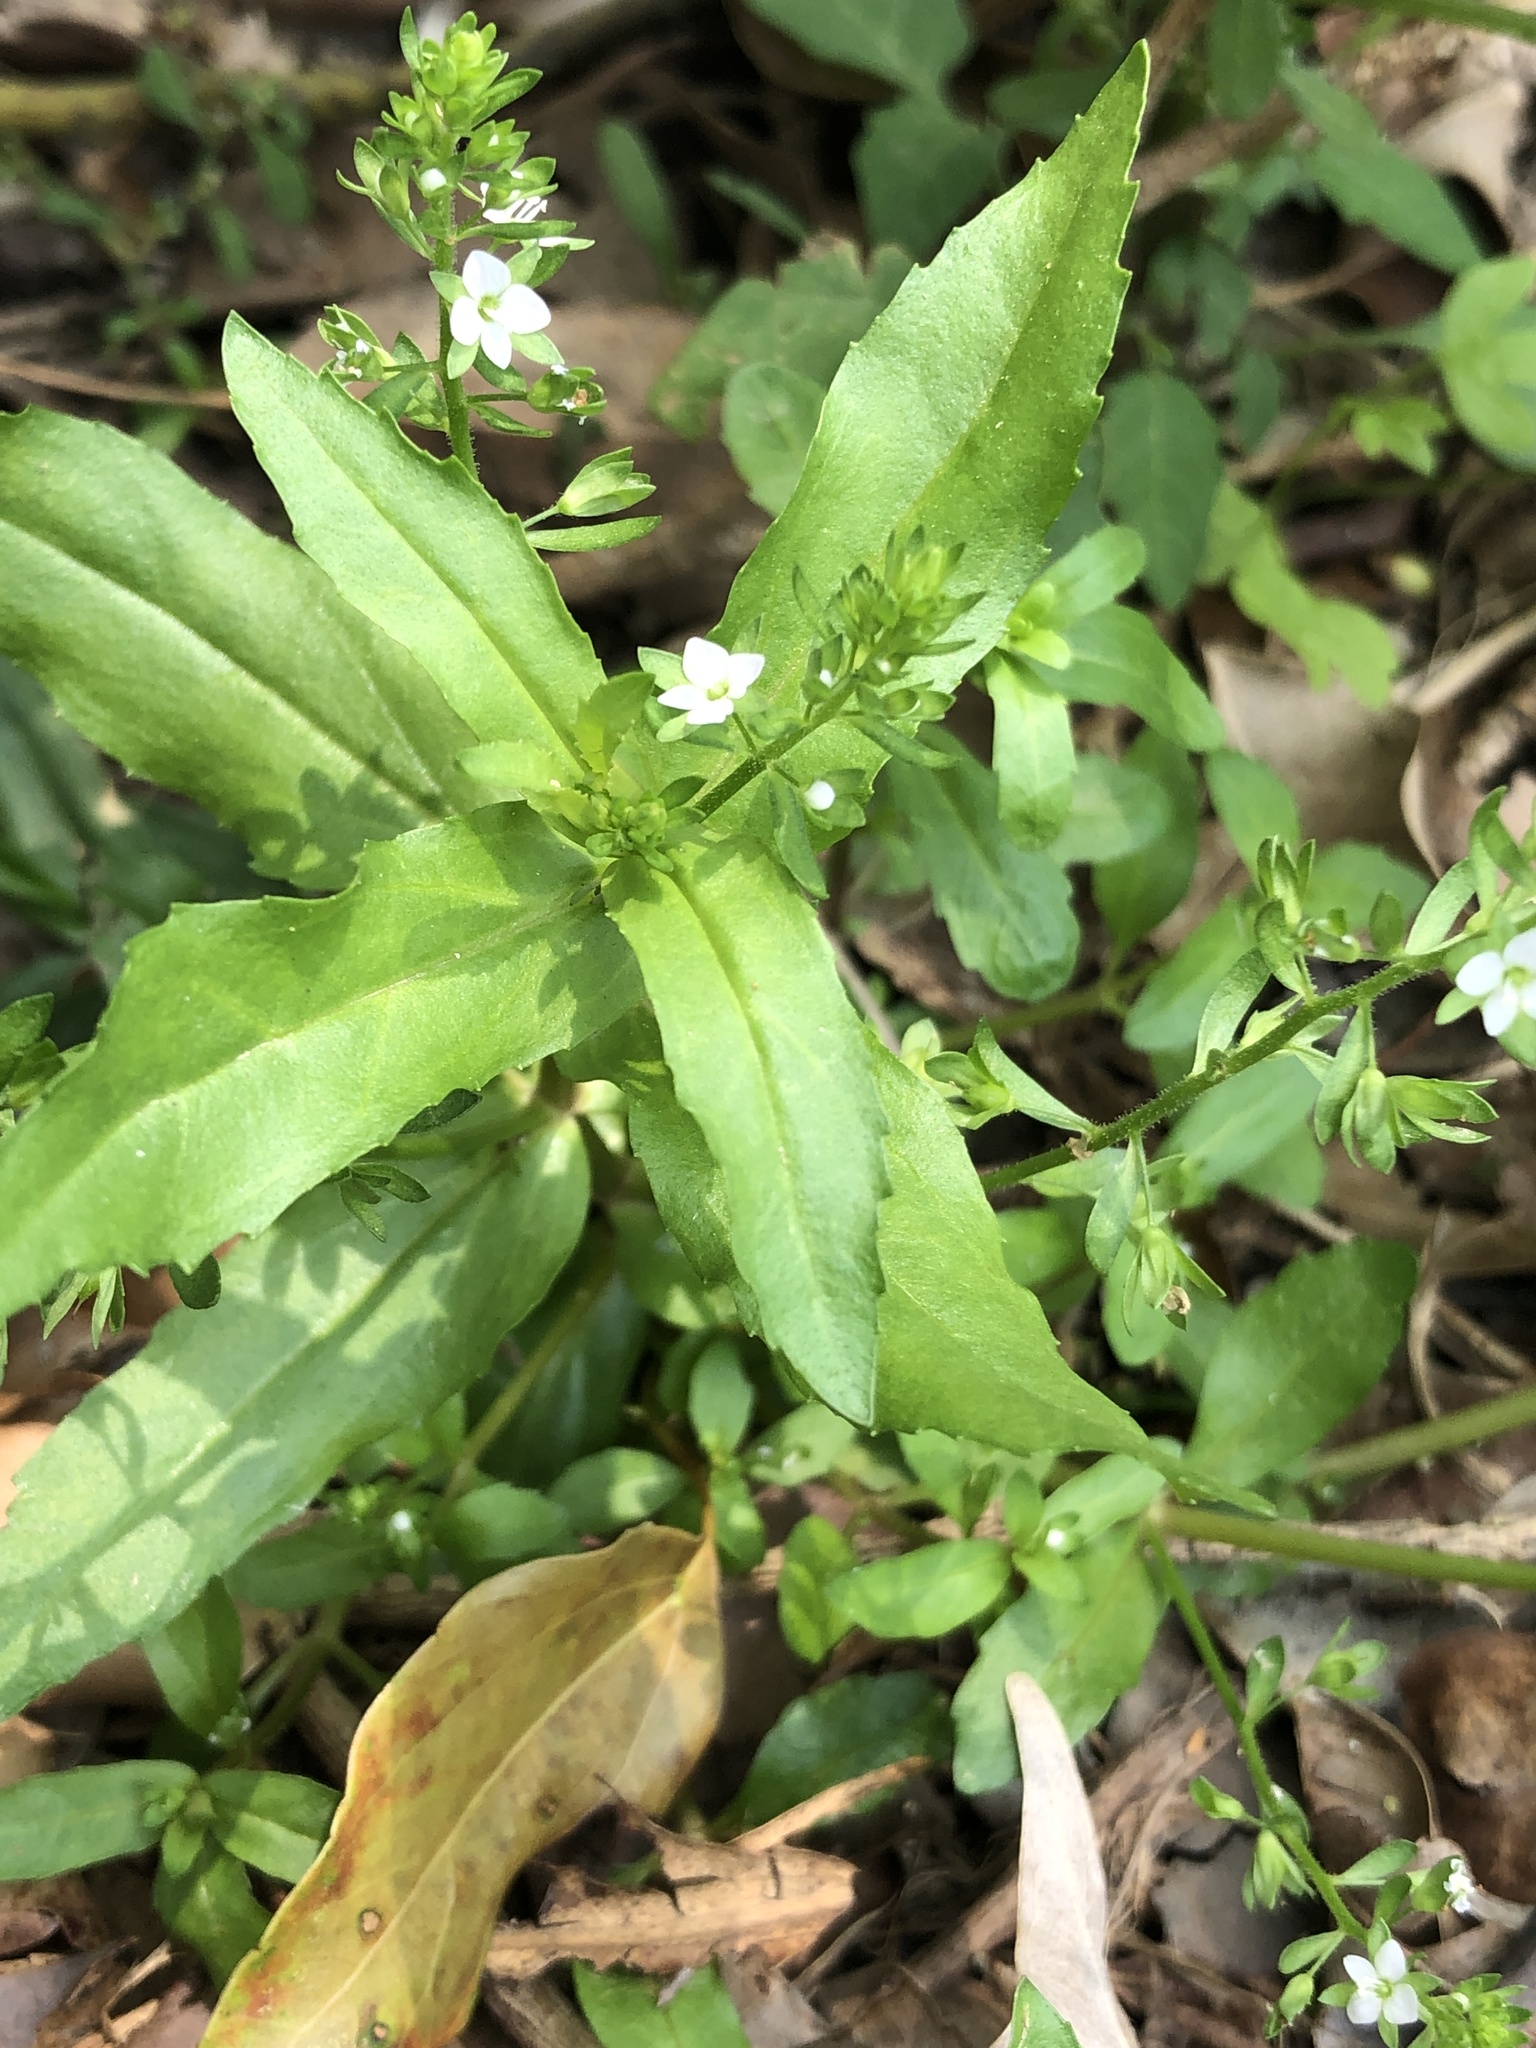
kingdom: Plantae
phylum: Tracheophyta
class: Magnoliopsida
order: Lamiales
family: Plantaginaceae
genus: Veronica
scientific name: Veronica undulata
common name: Undulate speedwell
